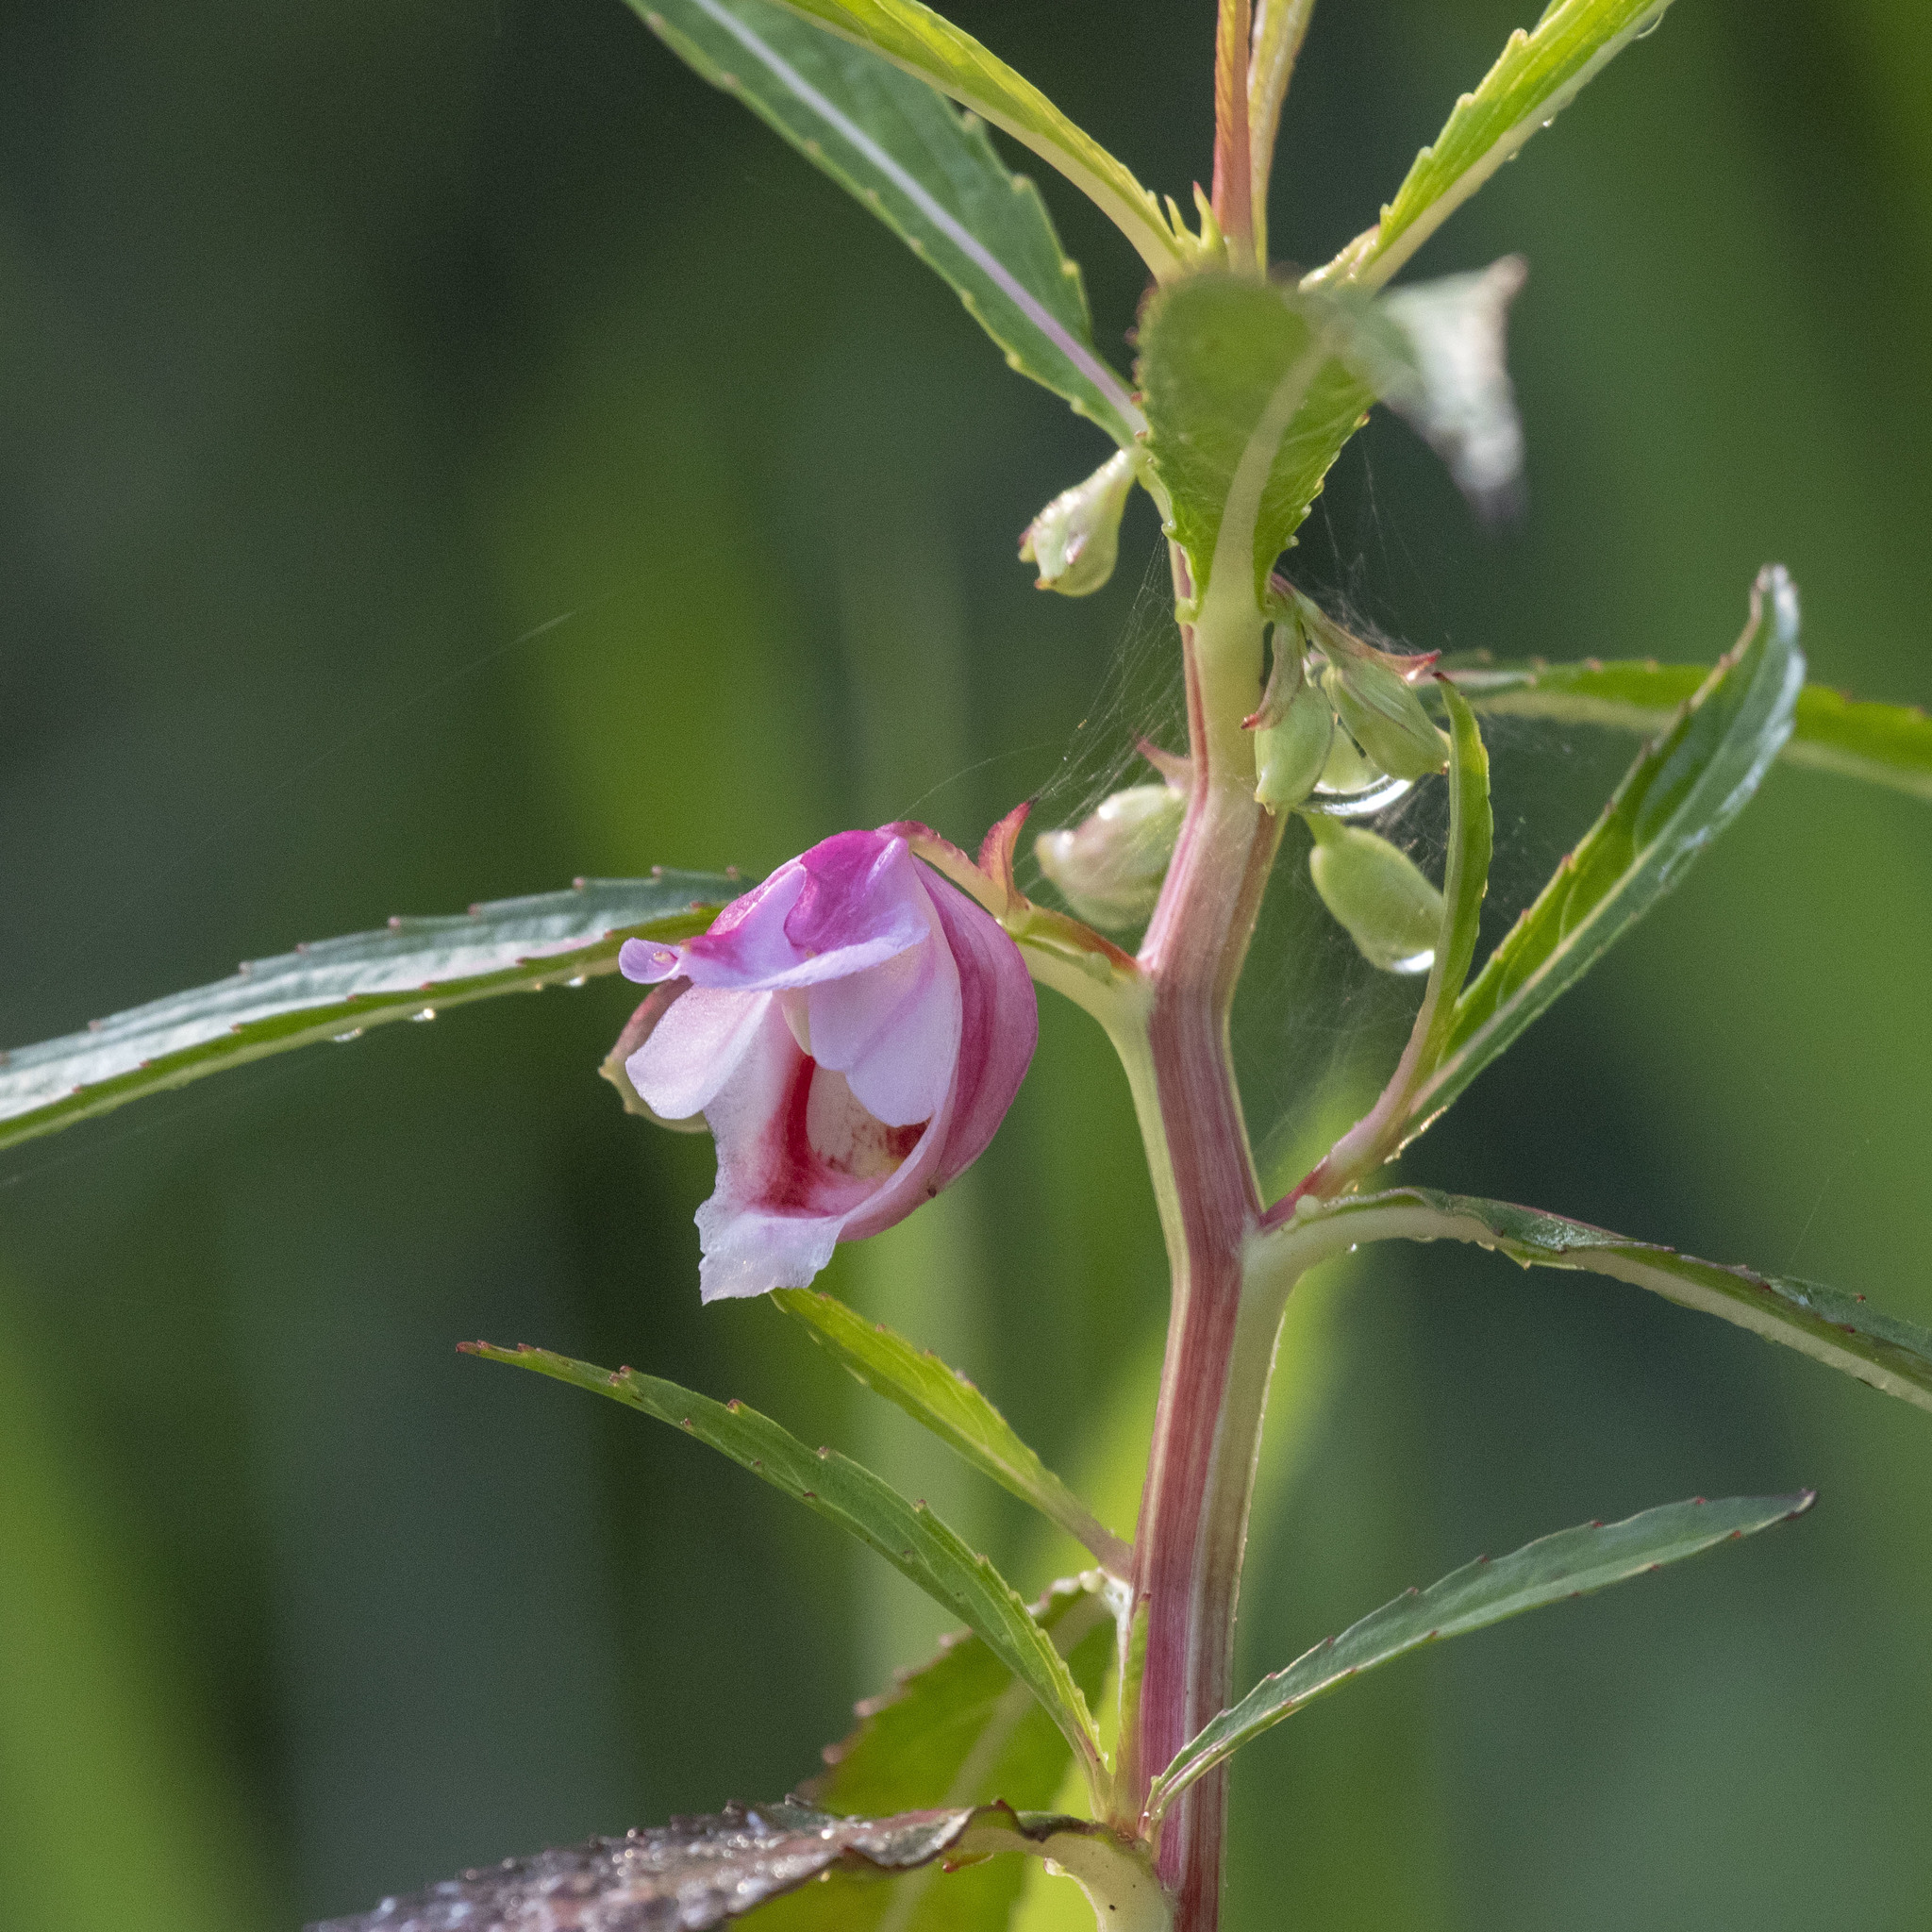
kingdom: Plantae
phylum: Tracheophyta
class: Magnoliopsida
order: Ericales
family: Balsaminaceae
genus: Hydrocera
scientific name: Hydrocera triflora
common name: Marsh henna
